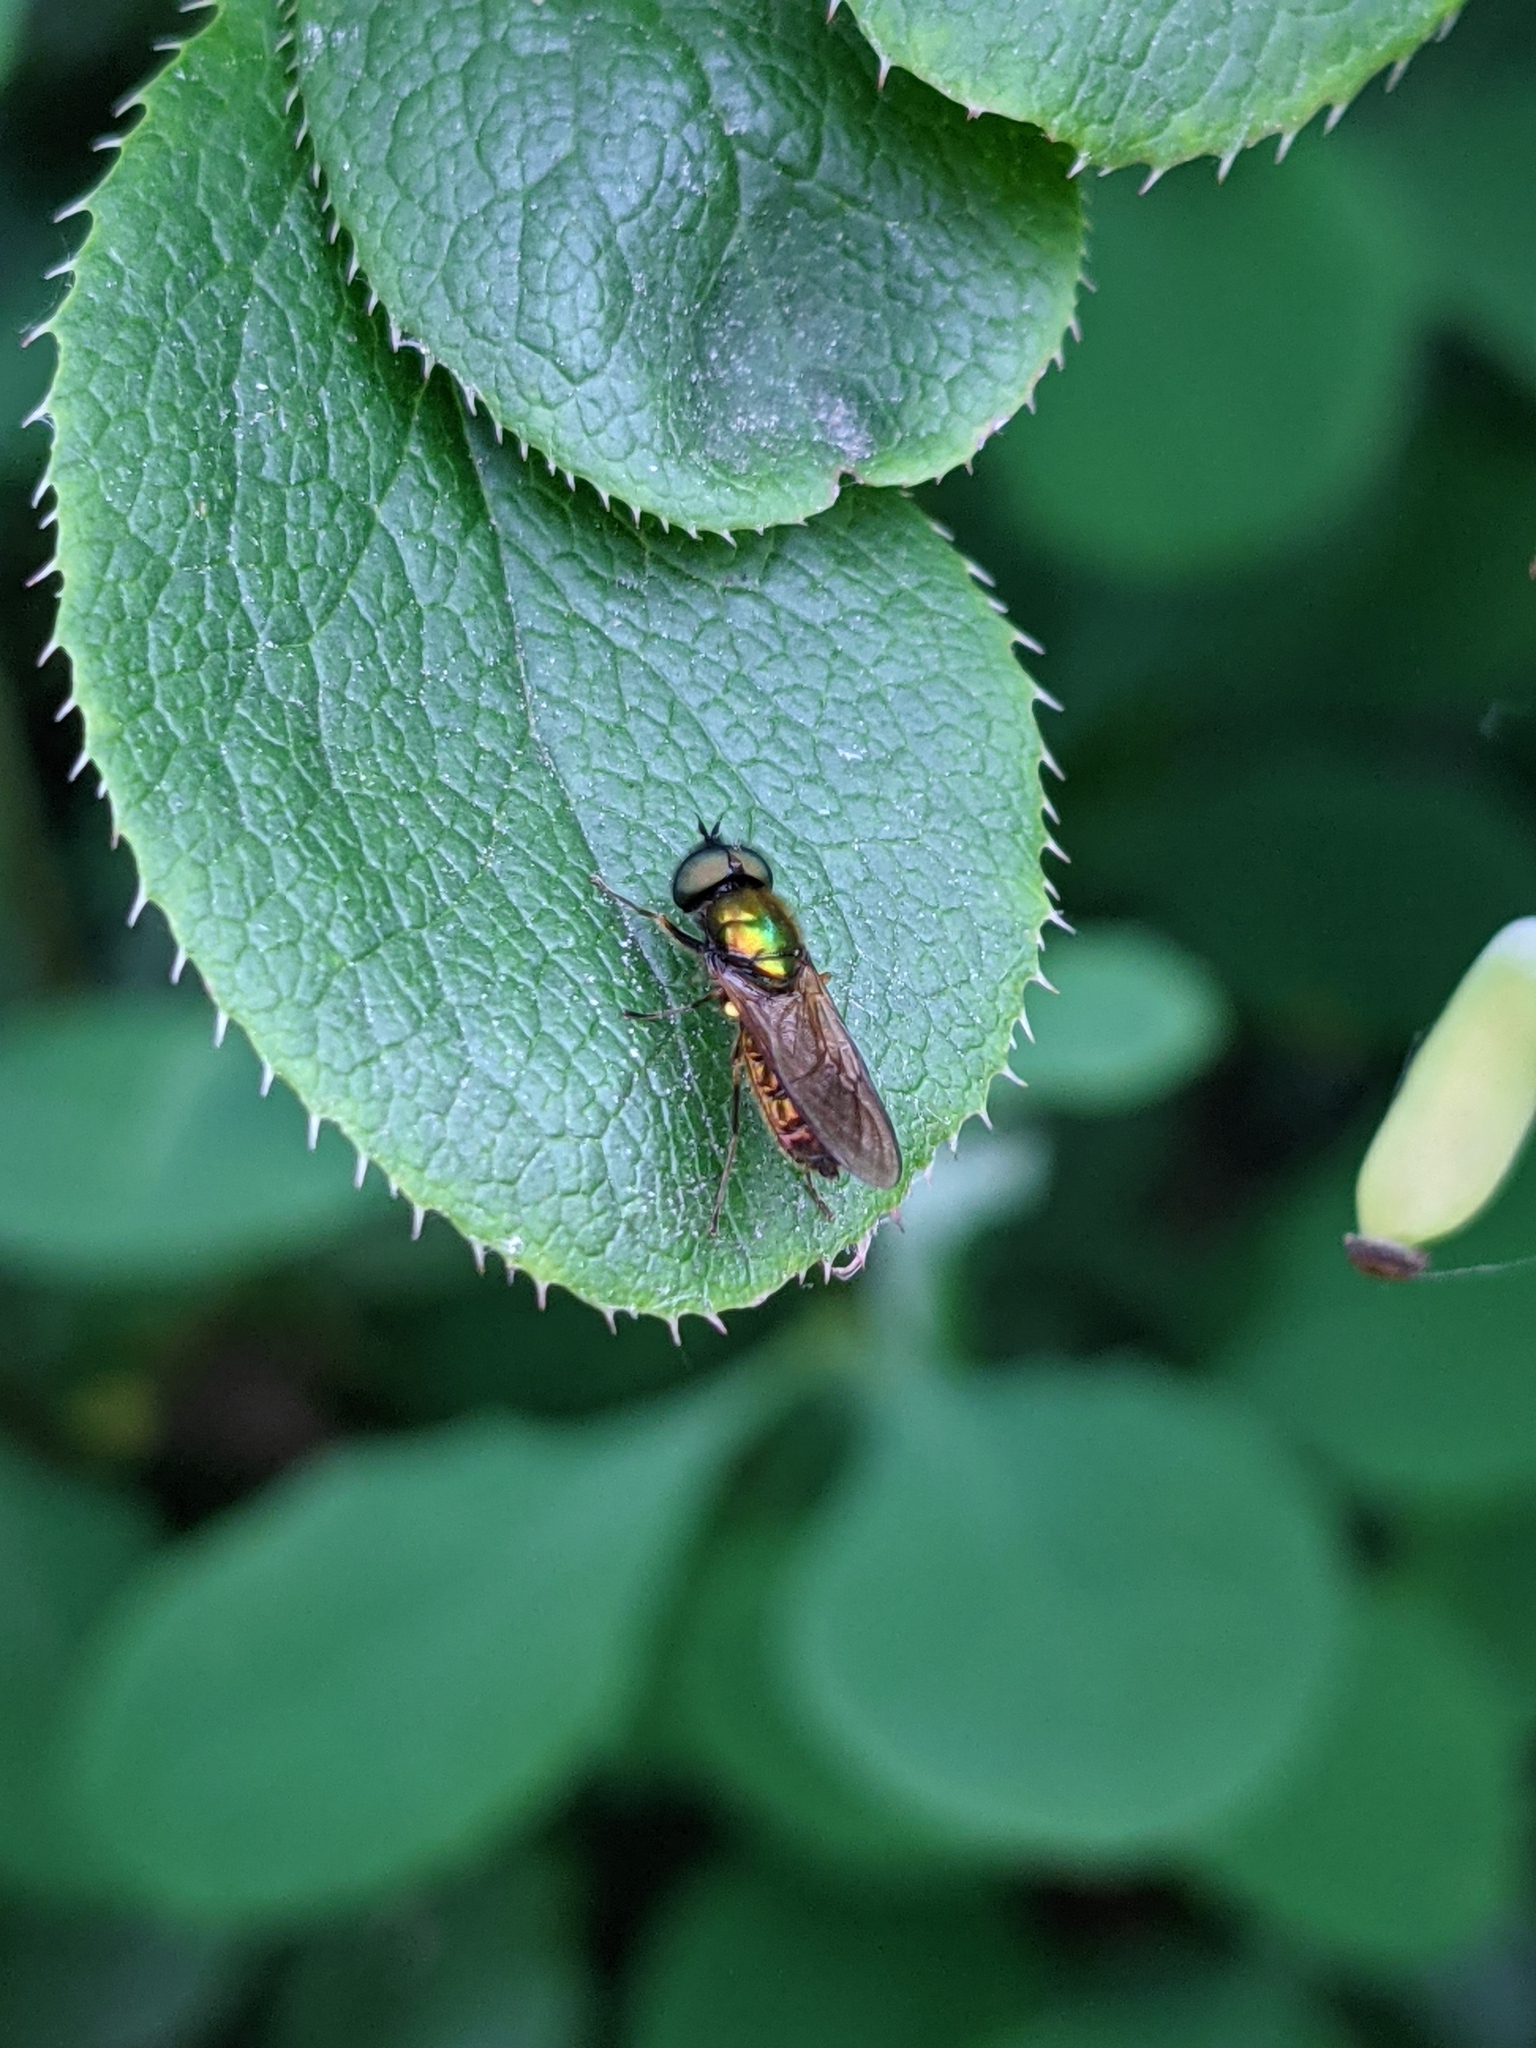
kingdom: Animalia
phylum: Arthropoda
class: Insecta
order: Diptera
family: Stratiomyidae
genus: Chloromyia
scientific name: Chloromyia formosa
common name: Soldier fly
